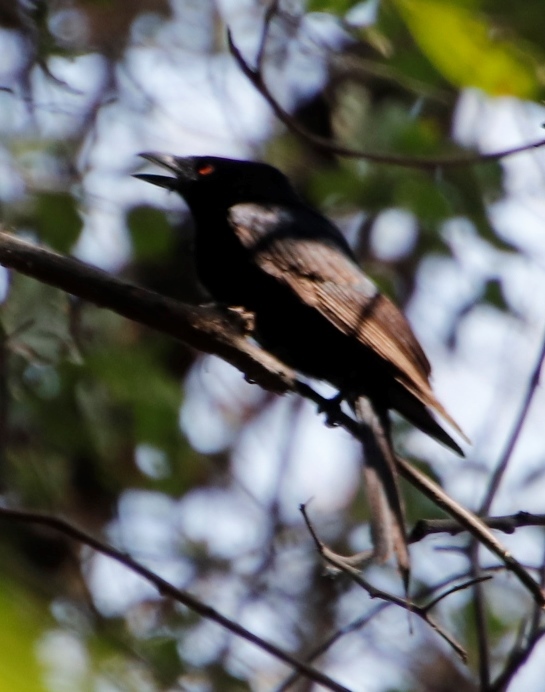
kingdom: Animalia
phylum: Chordata
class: Aves
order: Passeriformes
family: Dicruridae
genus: Dicrurus
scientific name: Dicrurus adsimilis
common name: Fork-tailed drongo
